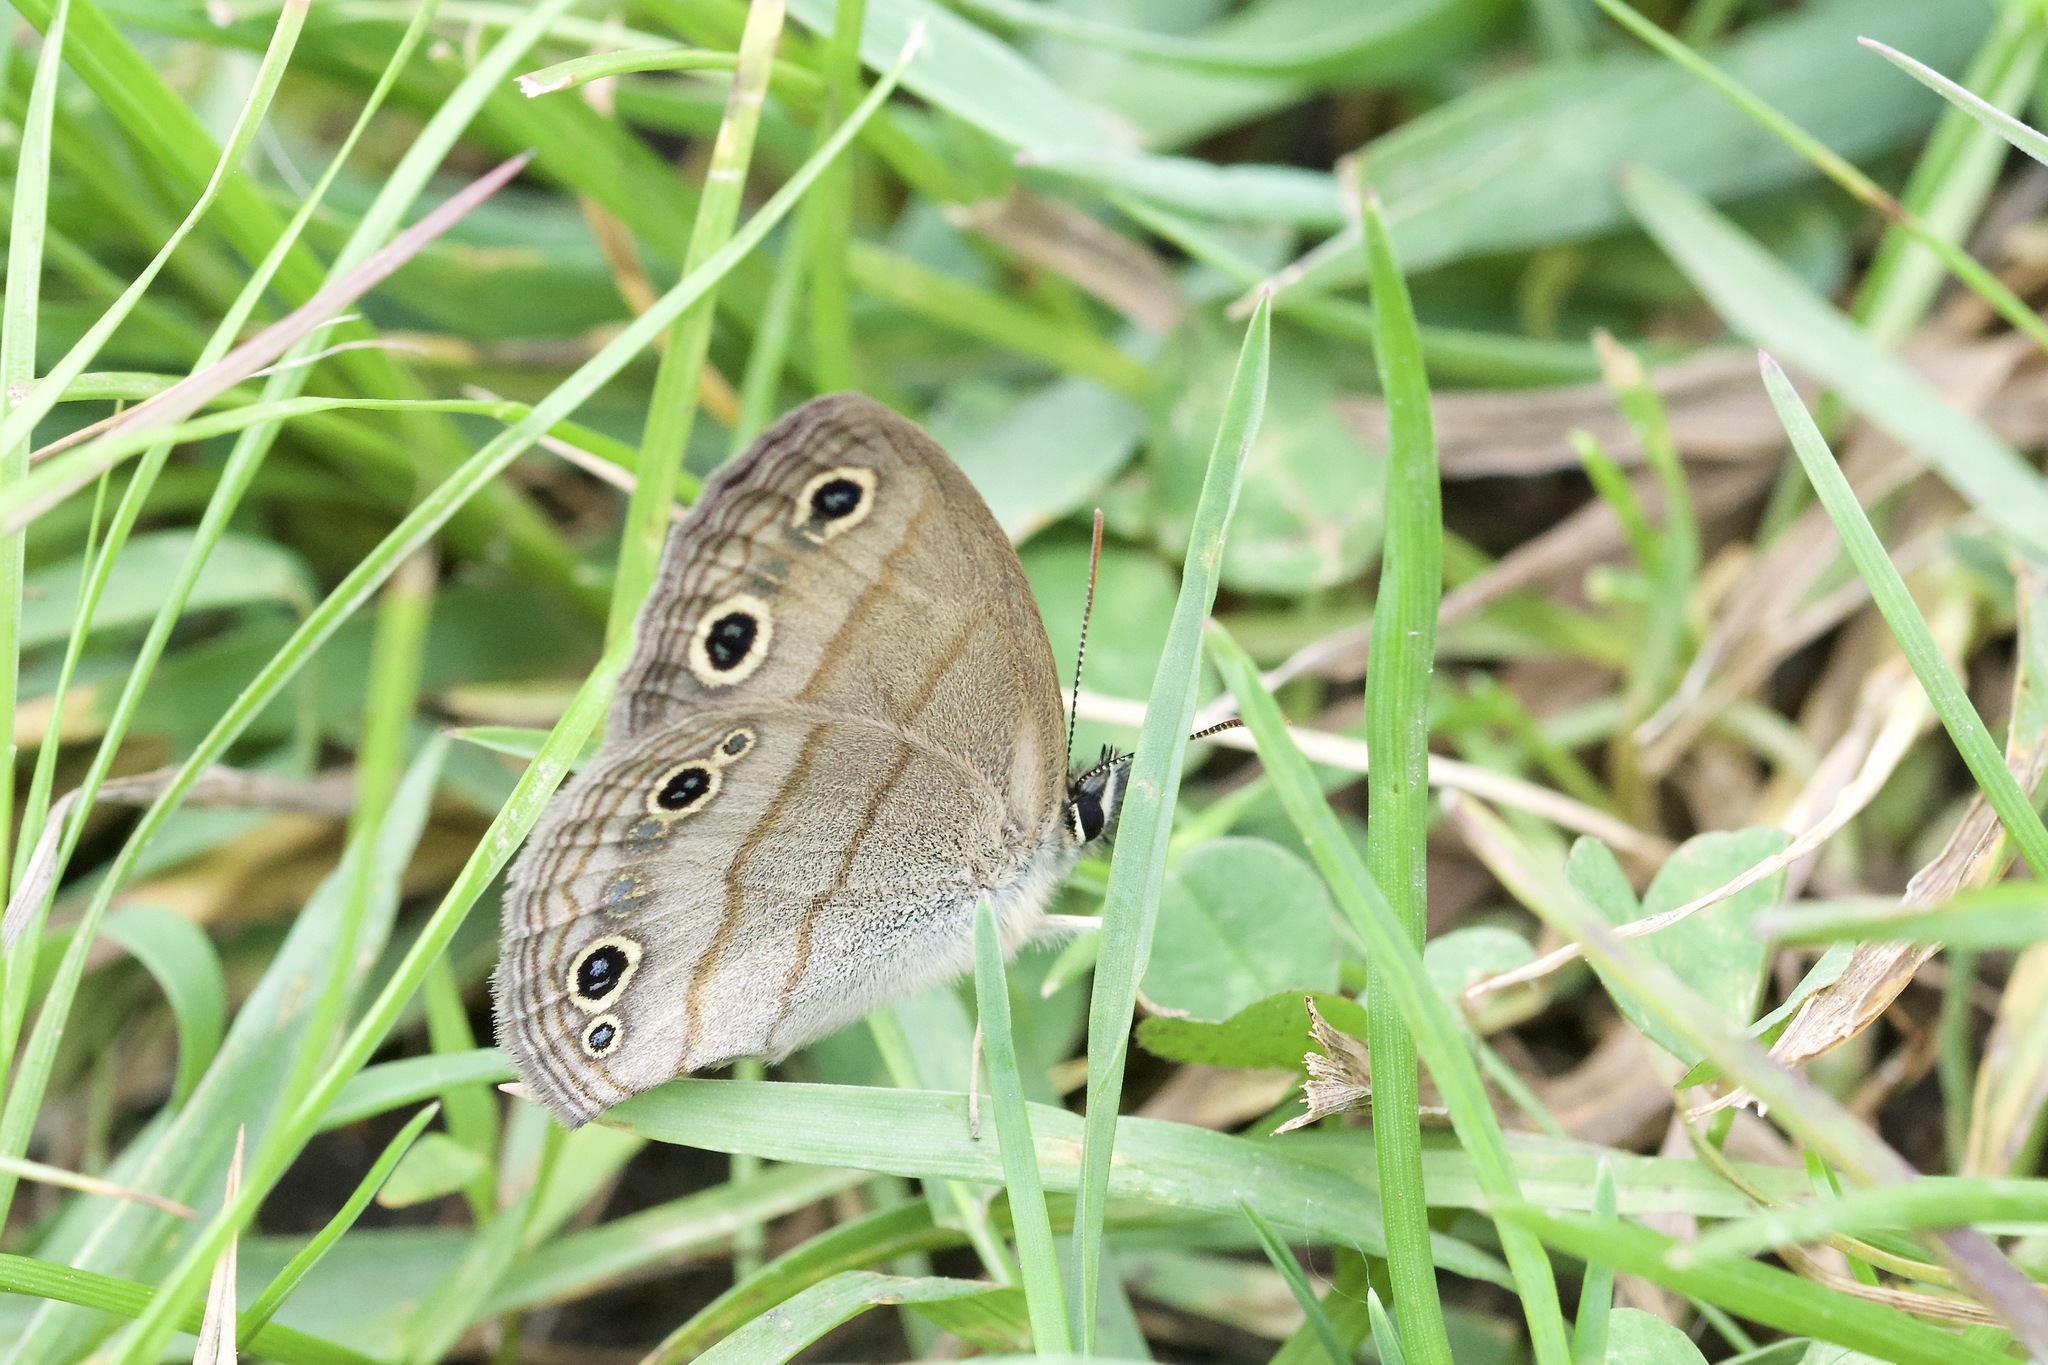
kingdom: Animalia
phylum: Arthropoda
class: Insecta
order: Lepidoptera
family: Nymphalidae
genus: Euptychia
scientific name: Euptychia cymela
